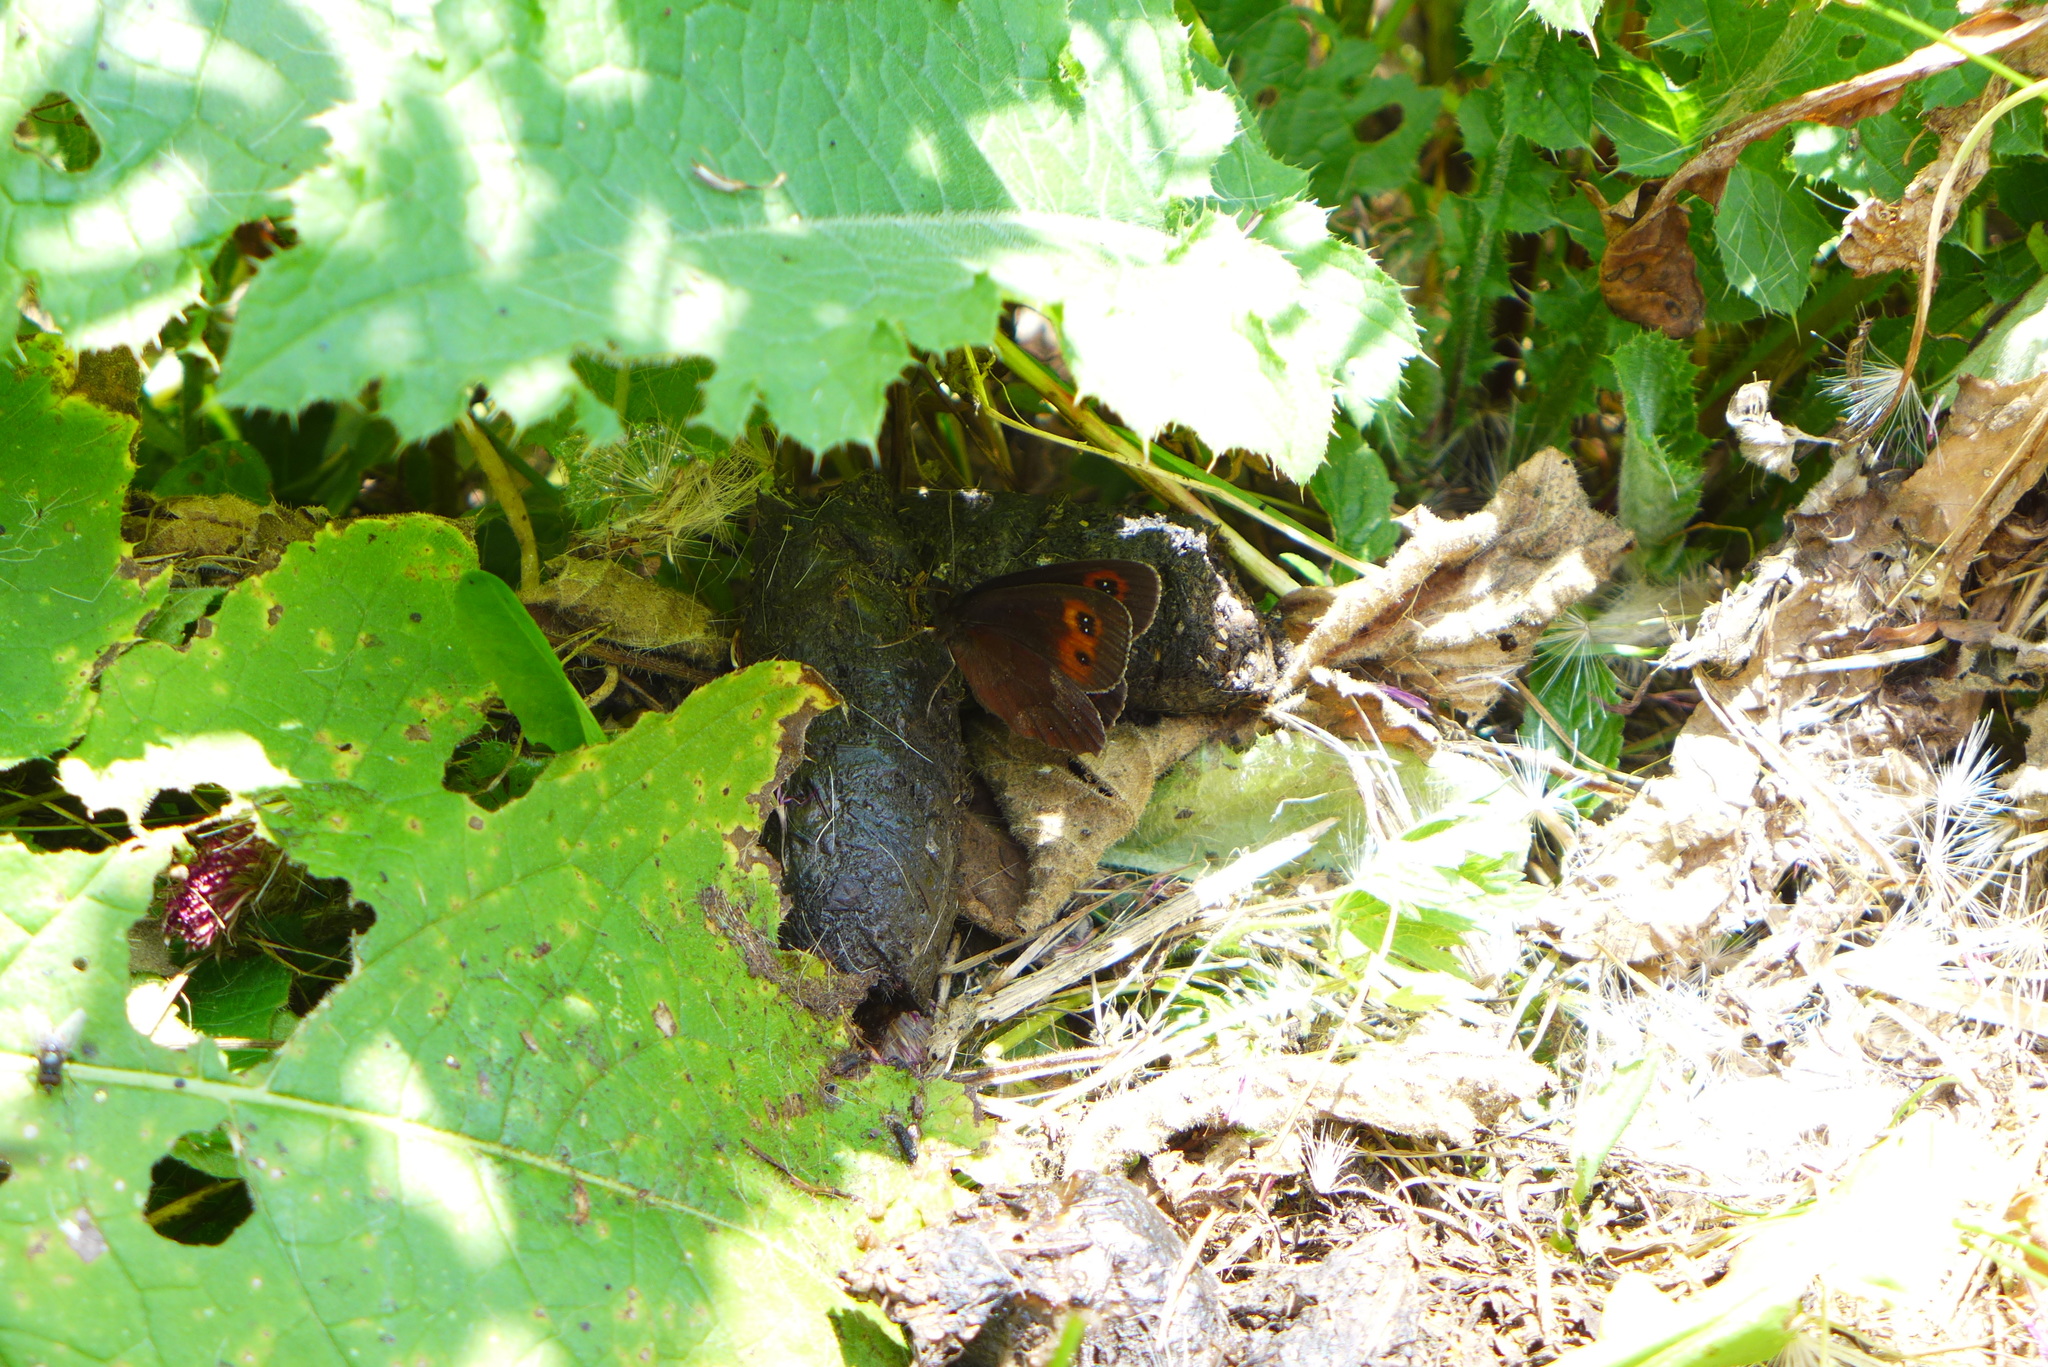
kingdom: Animalia
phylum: Arthropoda
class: Insecta
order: Lepidoptera
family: Nymphalidae
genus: Erebia
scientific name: Erebia aethiops
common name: Scotch argus
